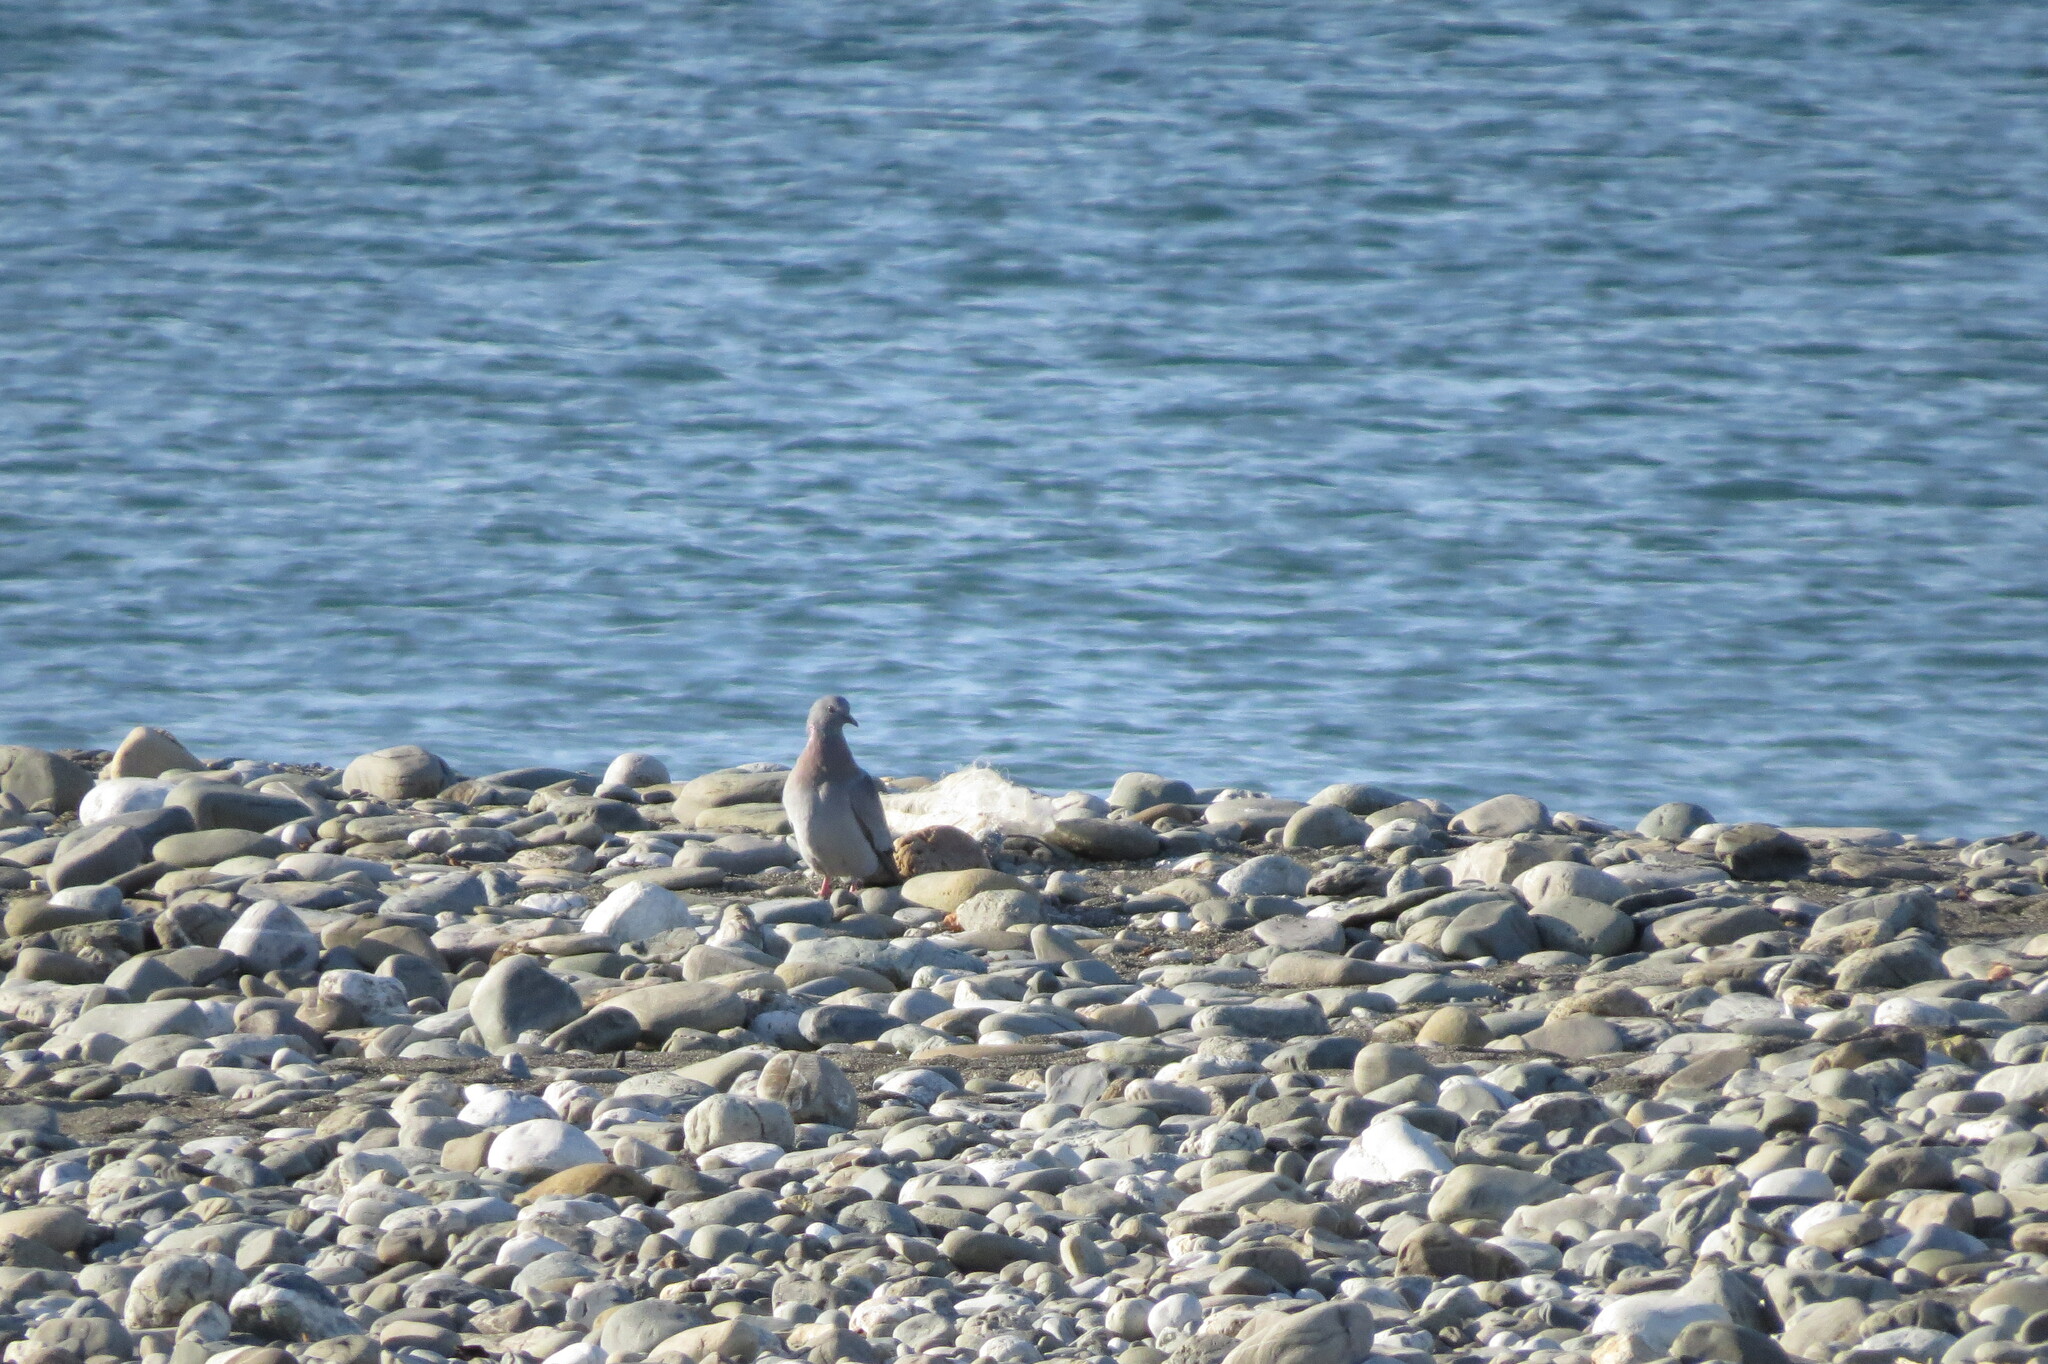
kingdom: Animalia
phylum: Chordata
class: Aves
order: Columbiformes
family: Columbidae
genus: Columba
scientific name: Columba livia
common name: Rock pigeon
